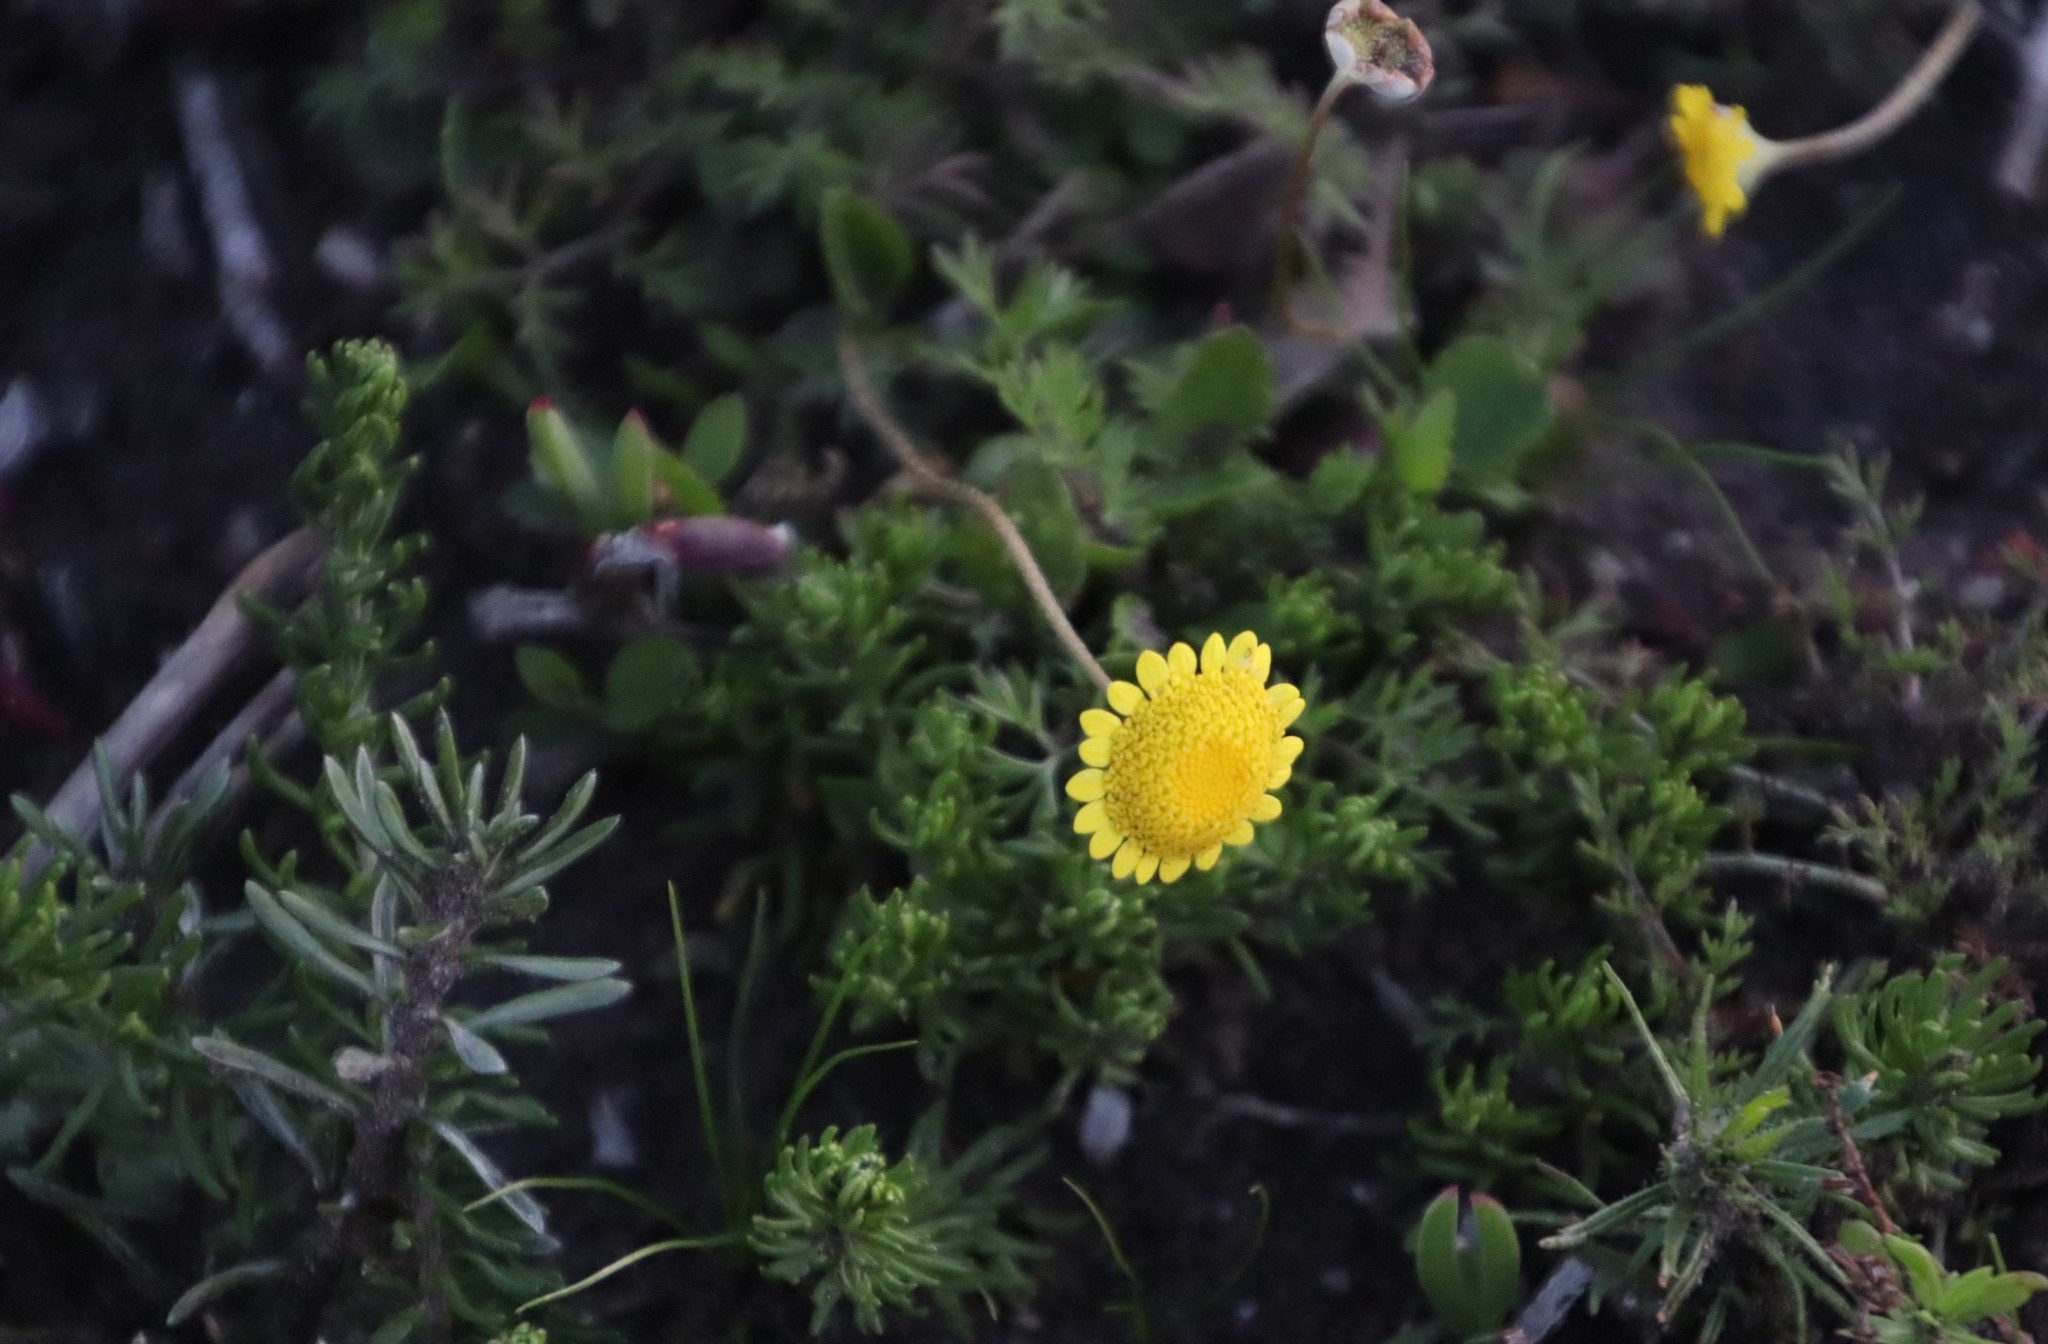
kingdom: Plantae
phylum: Tracheophyta
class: Magnoliopsida
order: Asterales
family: Asteraceae
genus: Cotula
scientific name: Cotula pruinosa
